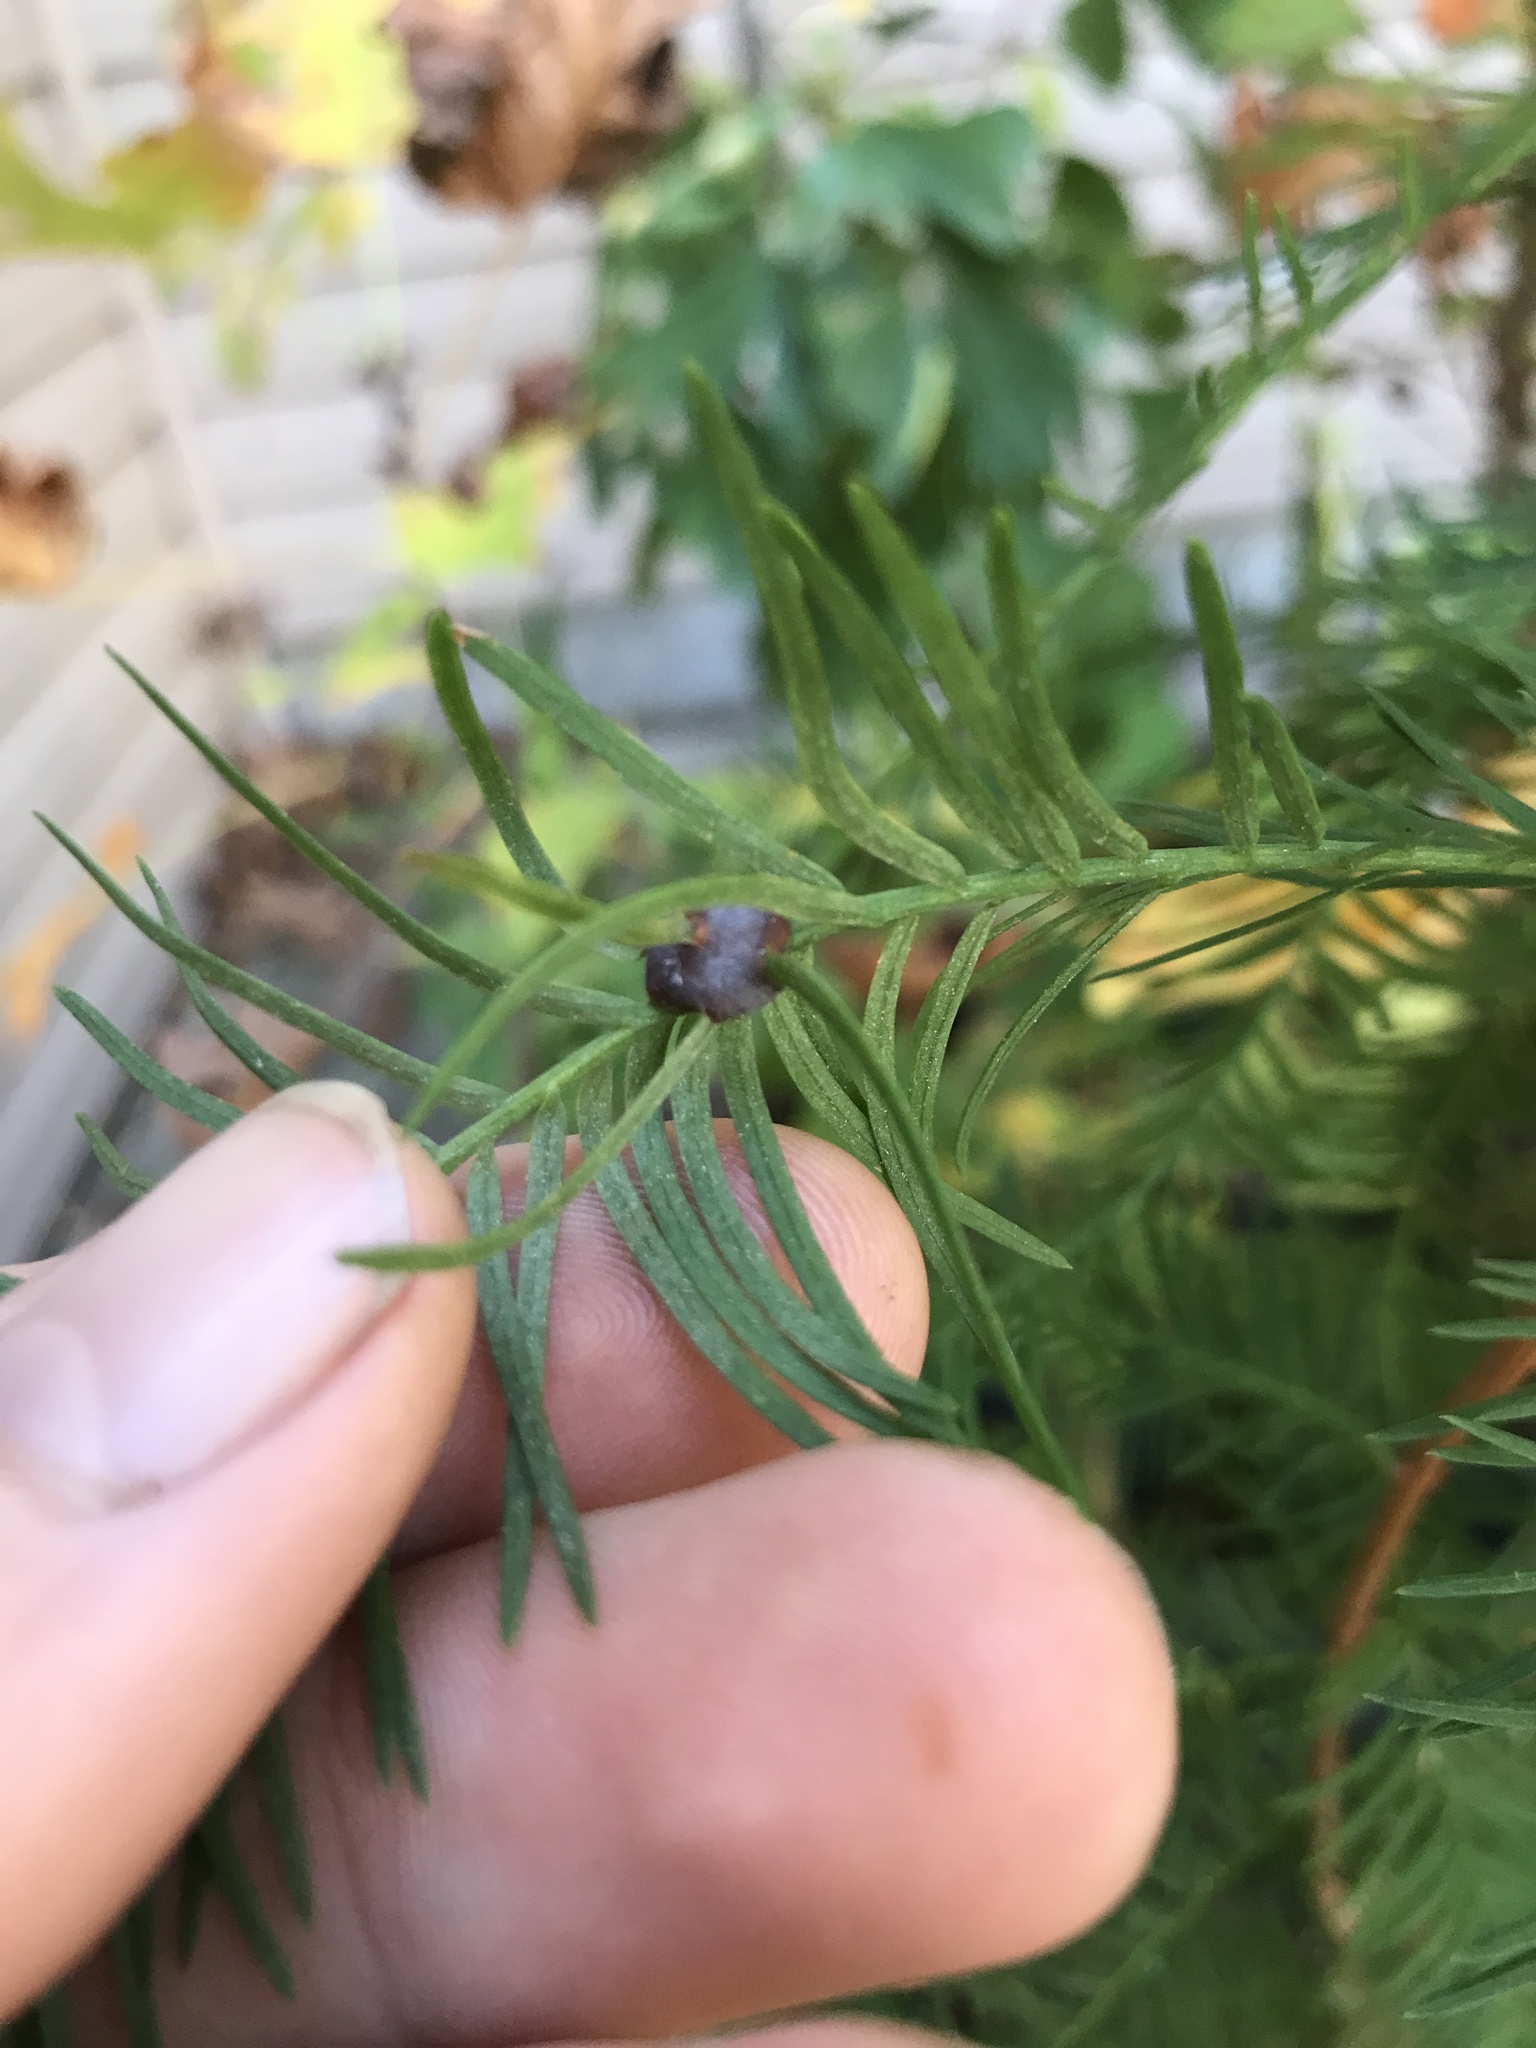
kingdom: Animalia
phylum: Arthropoda
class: Insecta
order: Diptera
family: Cecidomyiidae
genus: Taxodiomyia
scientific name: Taxodiomyia cupressiananassa
